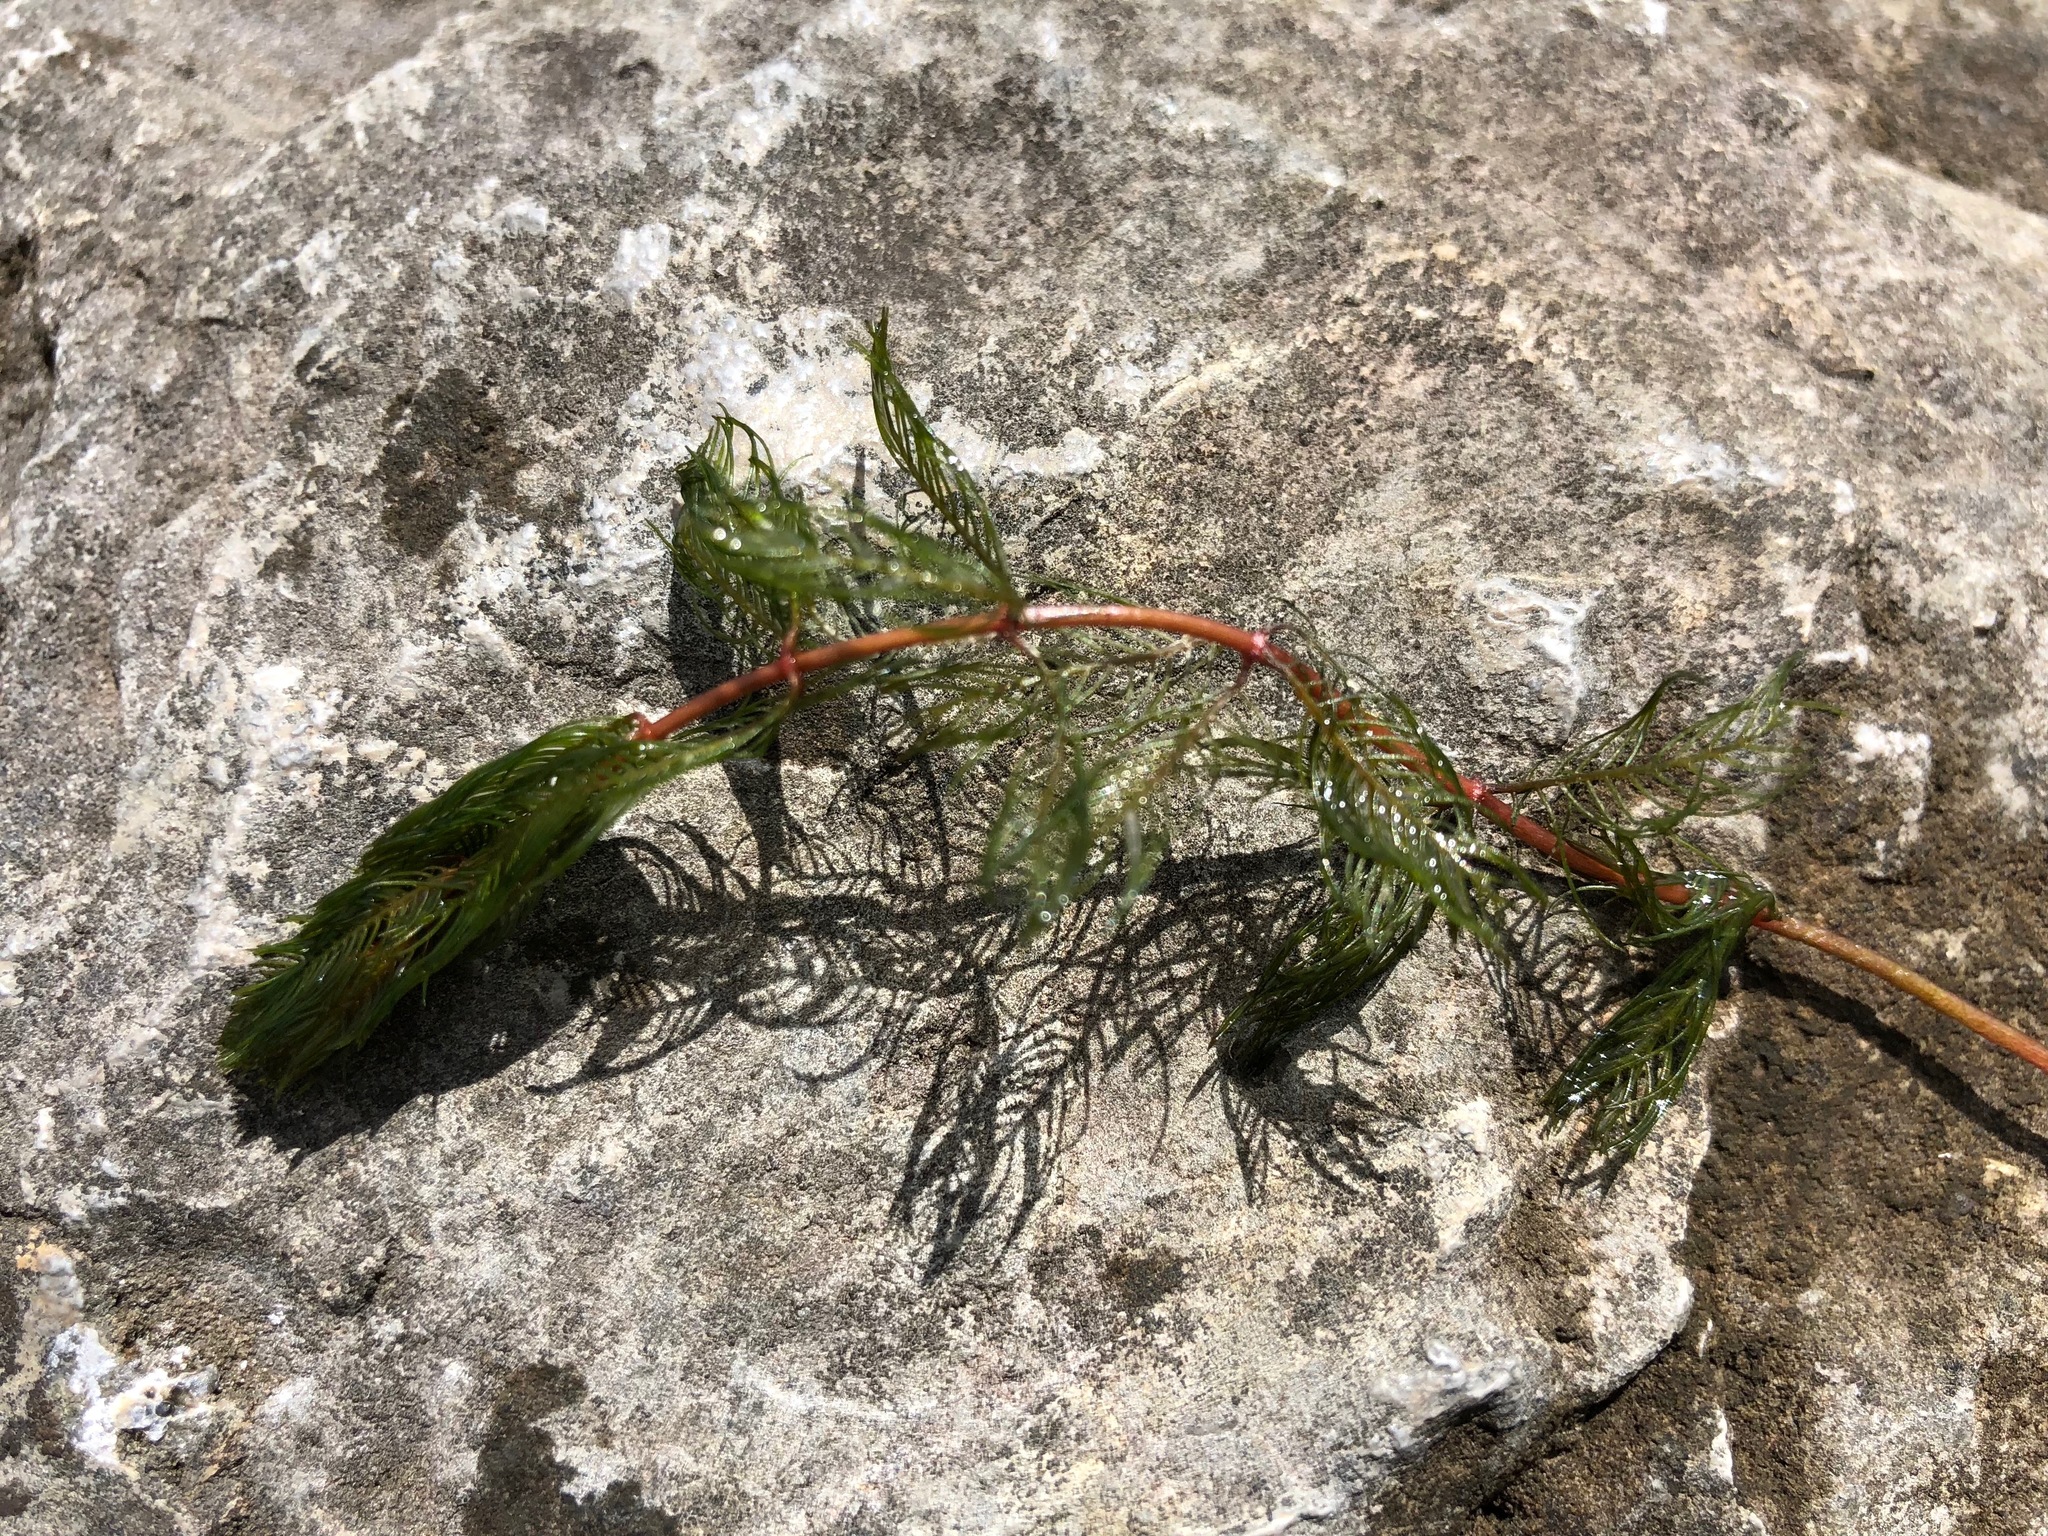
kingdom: Plantae
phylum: Tracheophyta
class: Magnoliopsida
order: Saxifragales
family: Haloragaceae
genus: Myriophyllum
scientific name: Myriophyllum spicatum
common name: Spiked water-milfoil
